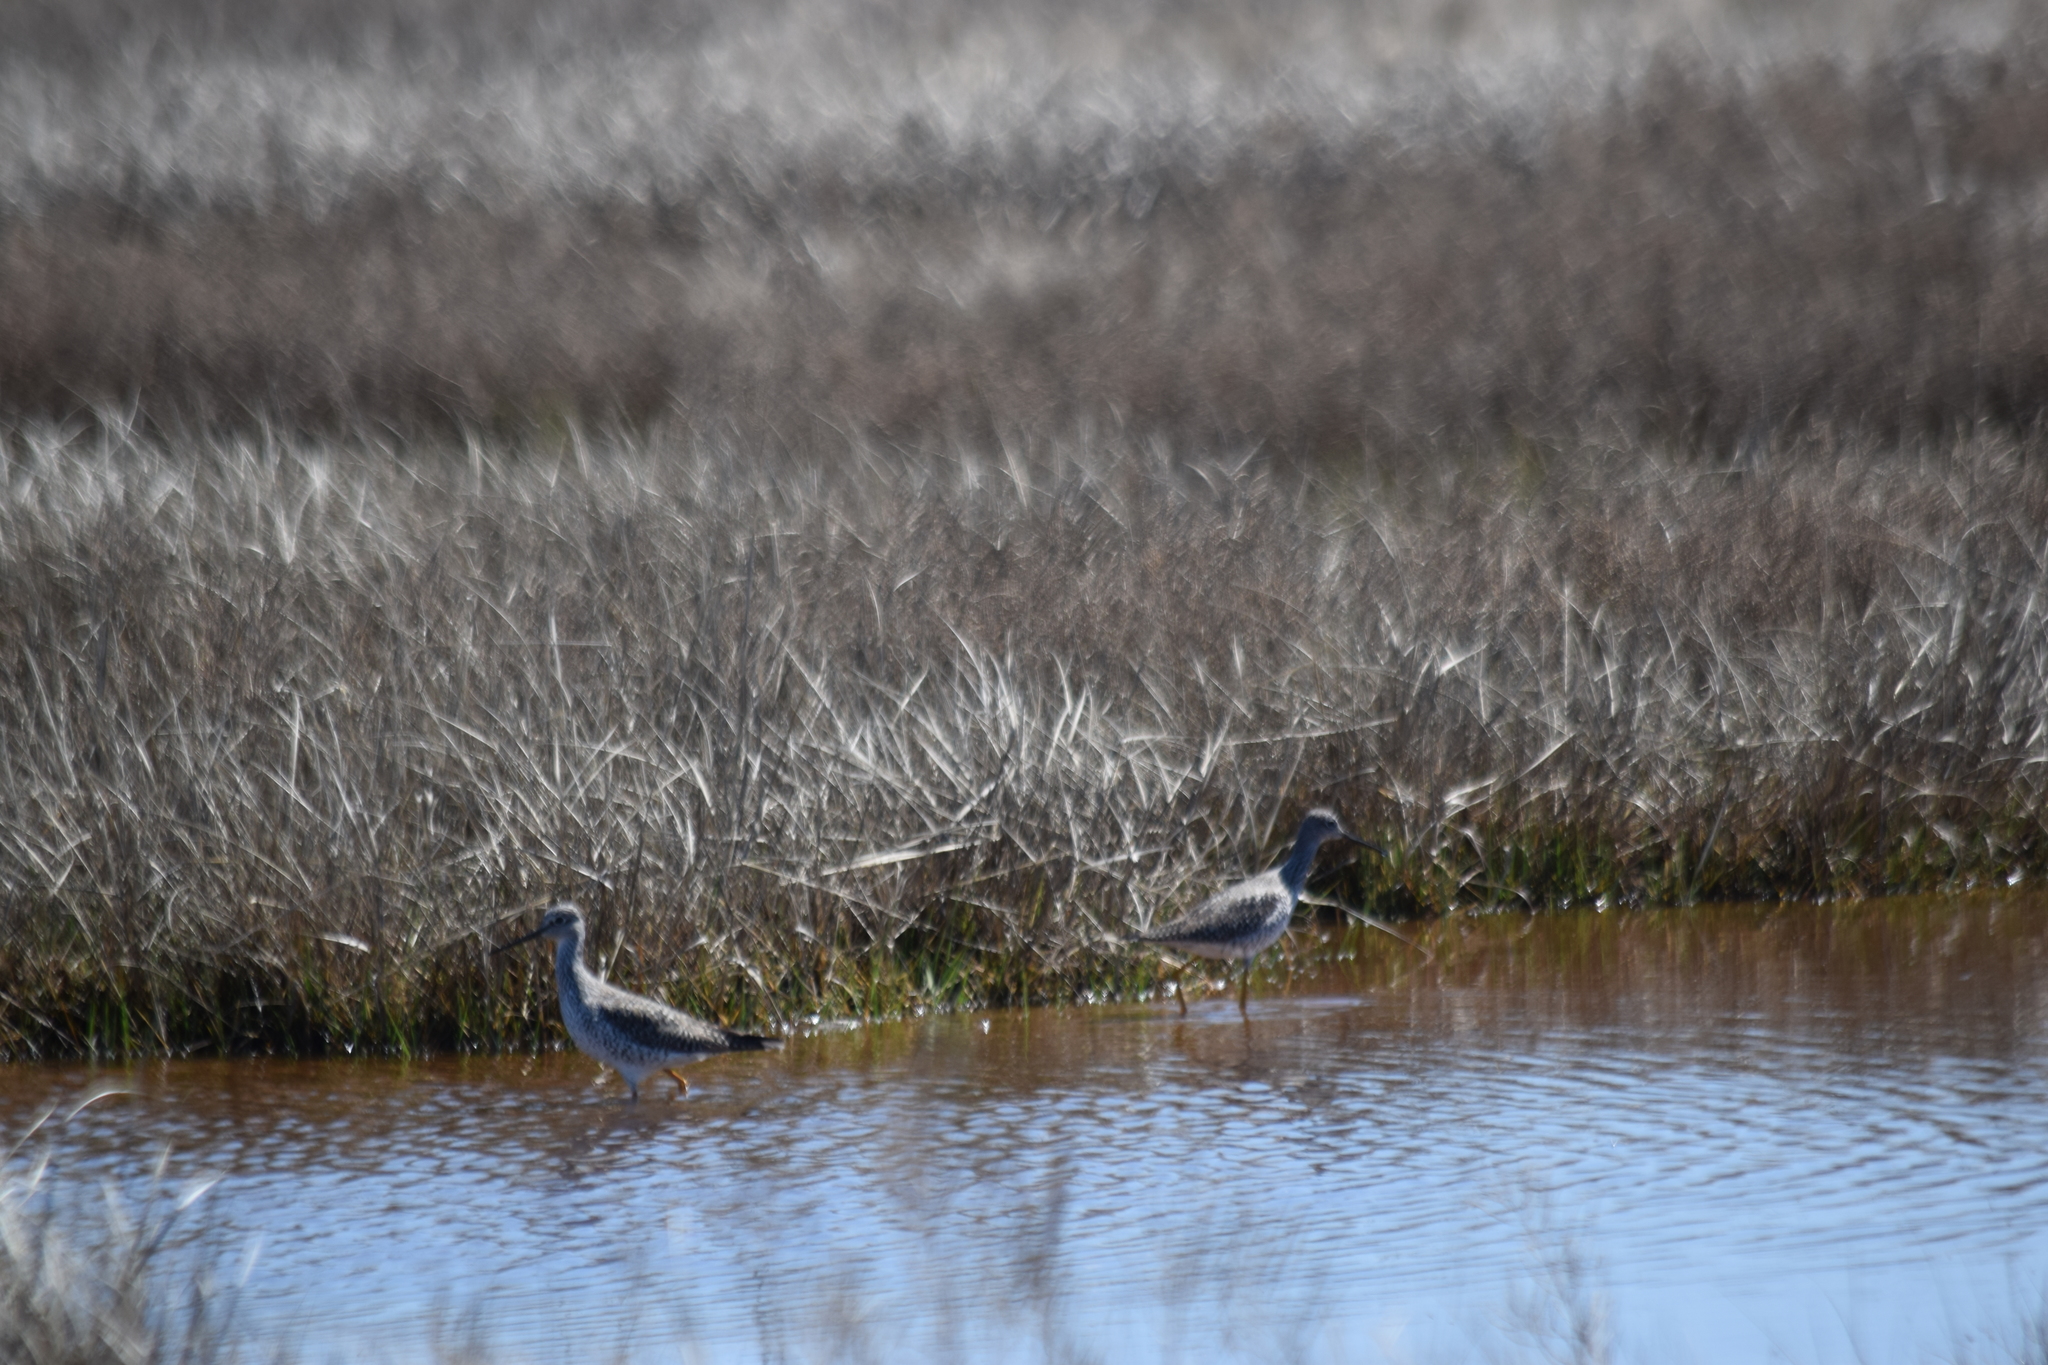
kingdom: Animalia
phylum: Chordata
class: Aves
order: Charadriiformes
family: Scolopacidae
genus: Tringa
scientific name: Tringa melanoleuca
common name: Greater yellowlegs
